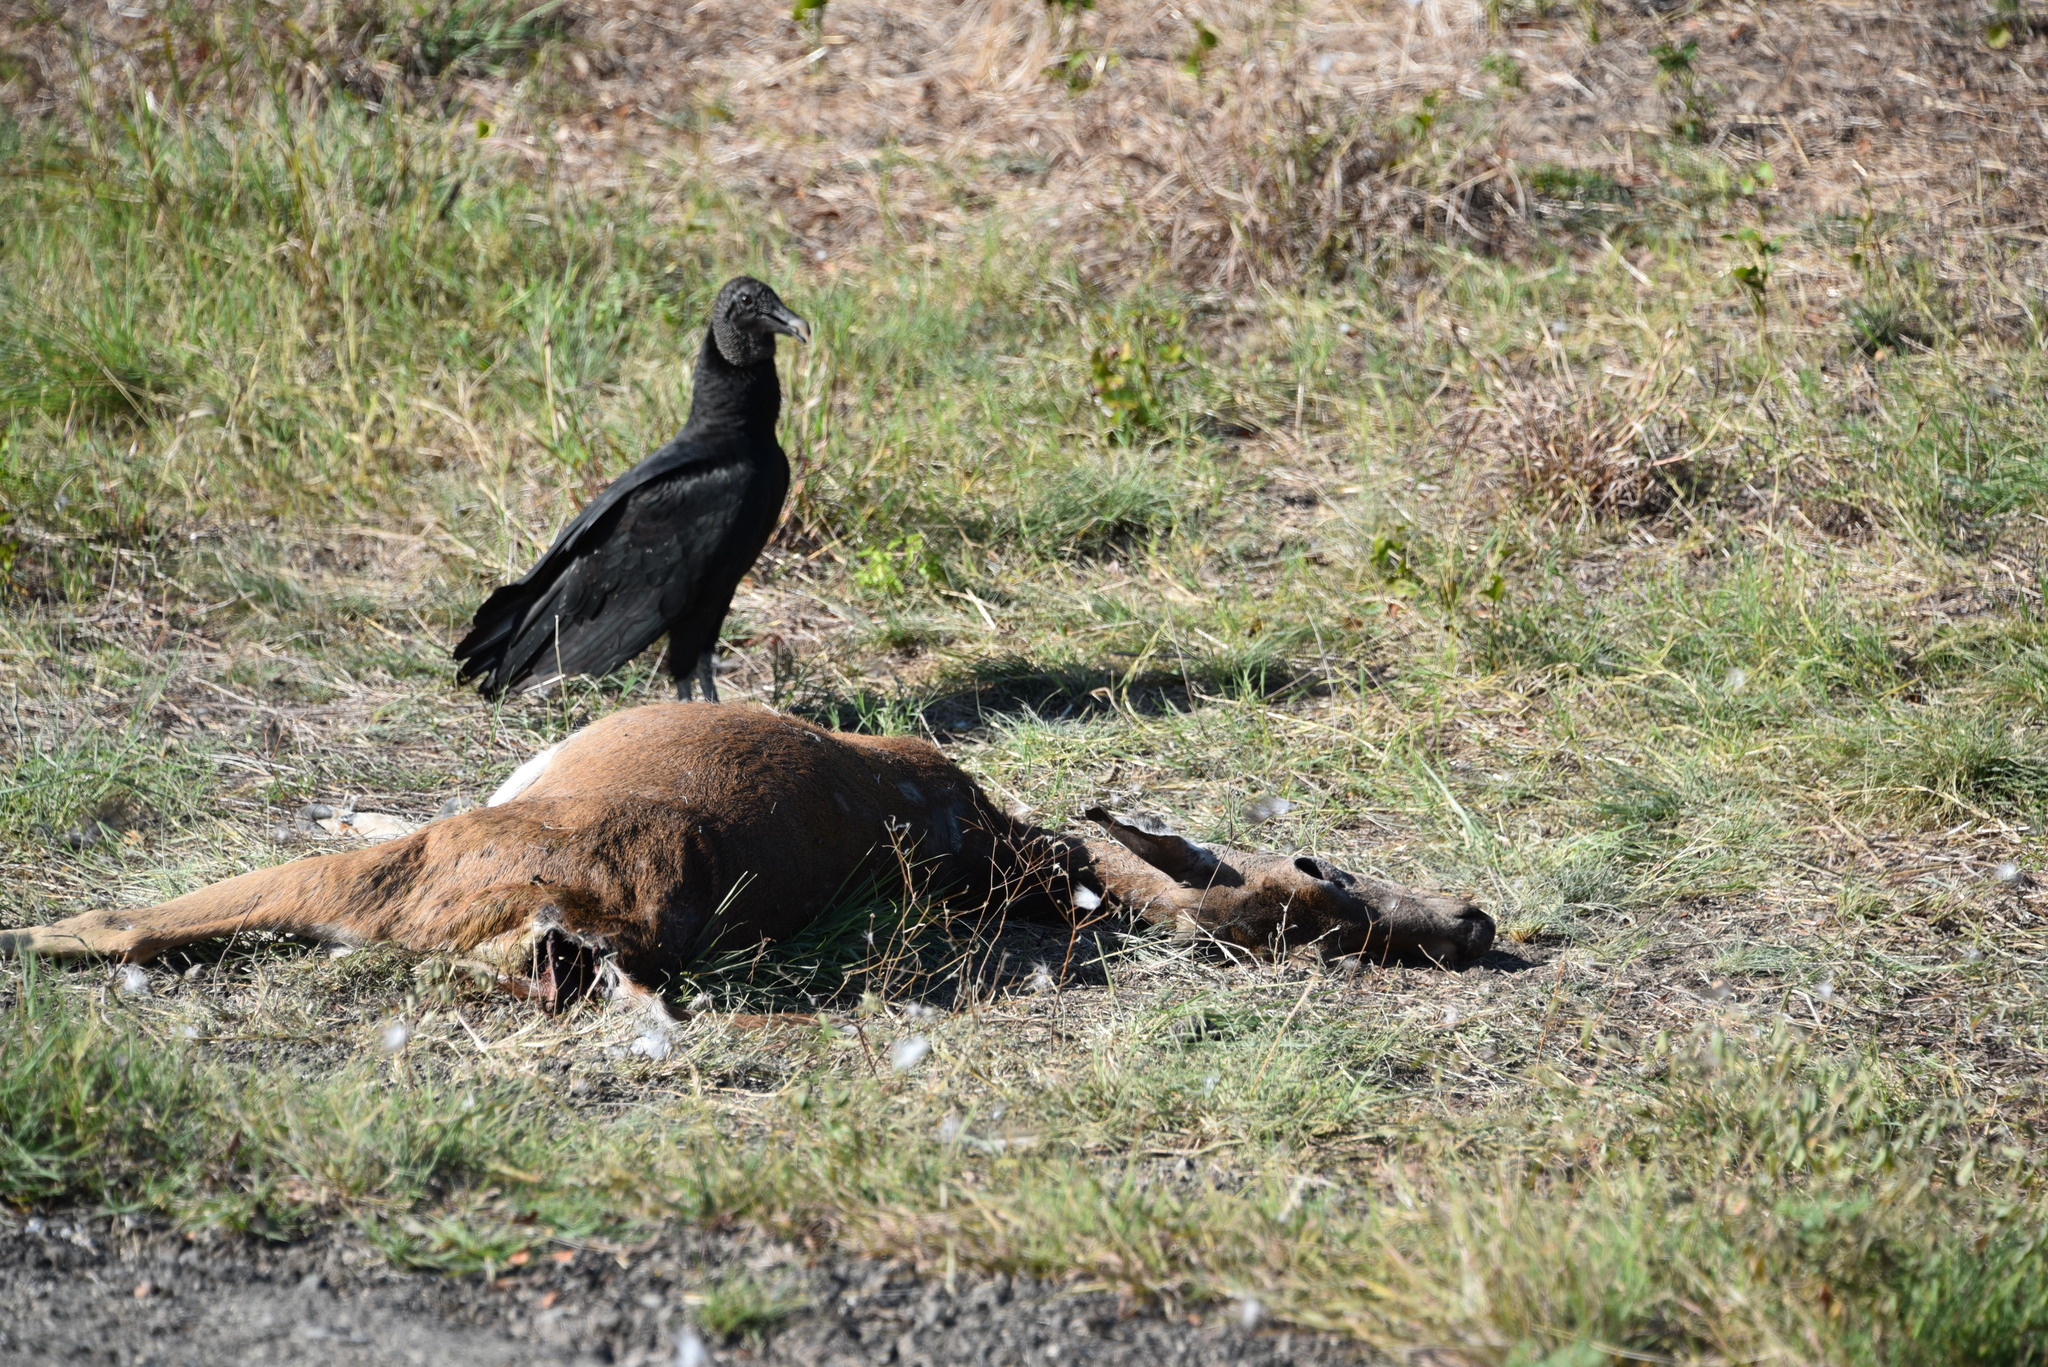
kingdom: Animalia
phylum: Chordata
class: Mammalia
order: Artiodactyla
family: Cervidae
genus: Odocoileus
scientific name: Odocoileus virginianus
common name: White-tailed deer
